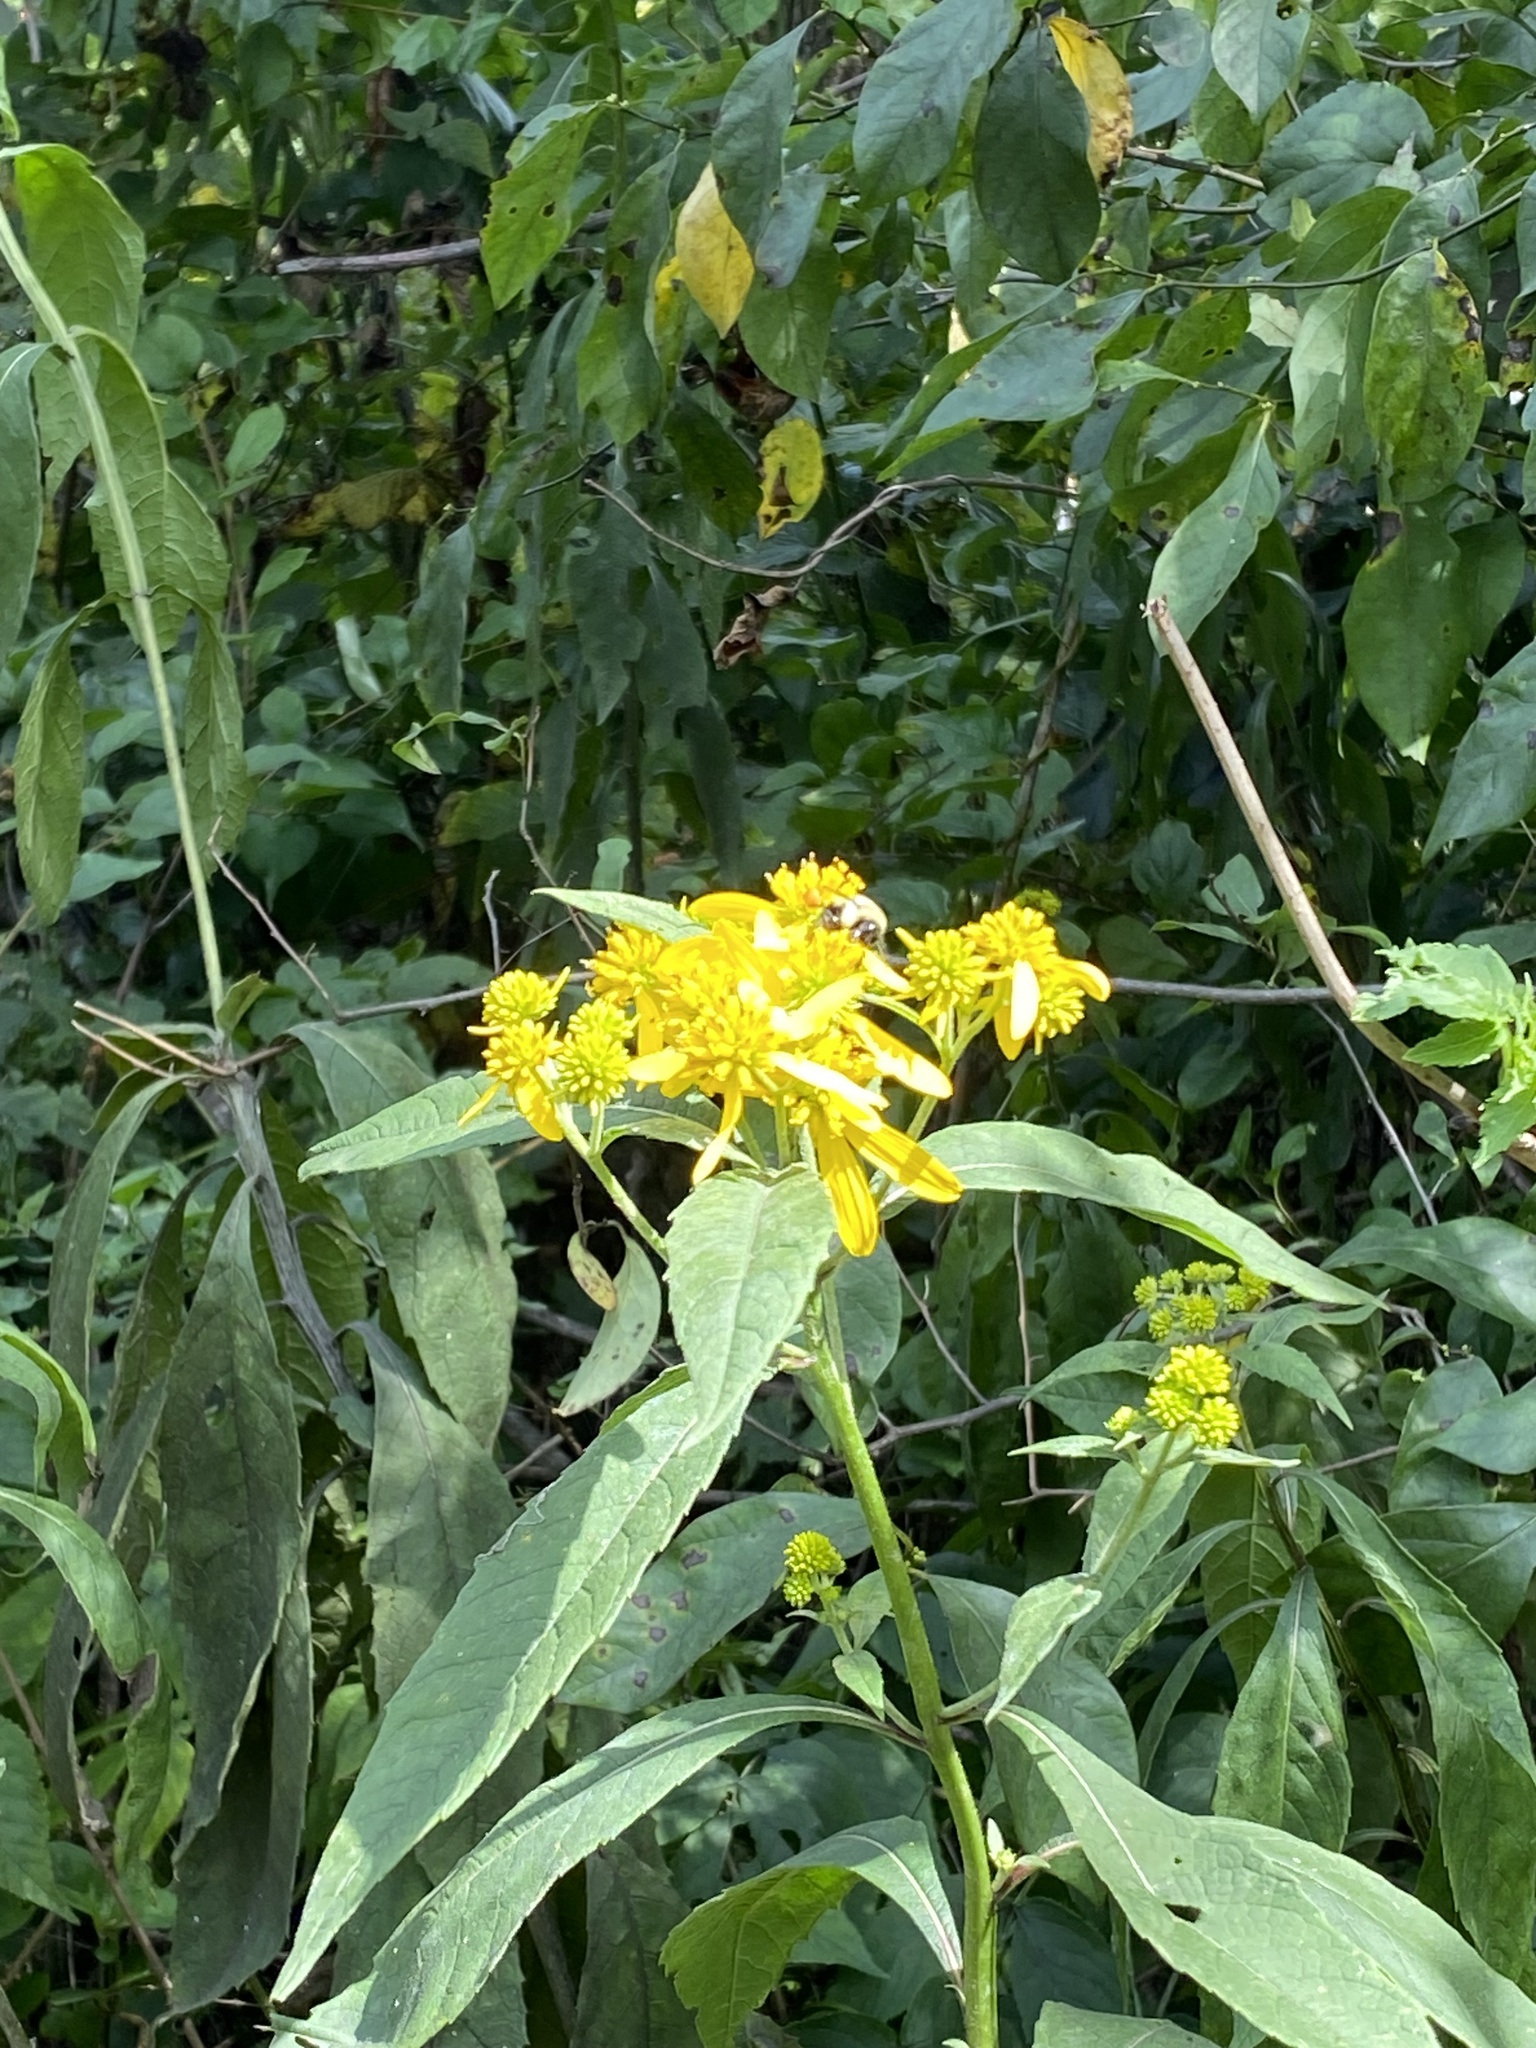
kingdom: Plantae
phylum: Tracheophyta
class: Magnoliopsida
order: Asterales
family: Asteraceae
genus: Verbesina
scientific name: Verbesina alternifolia
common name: Wingstem
